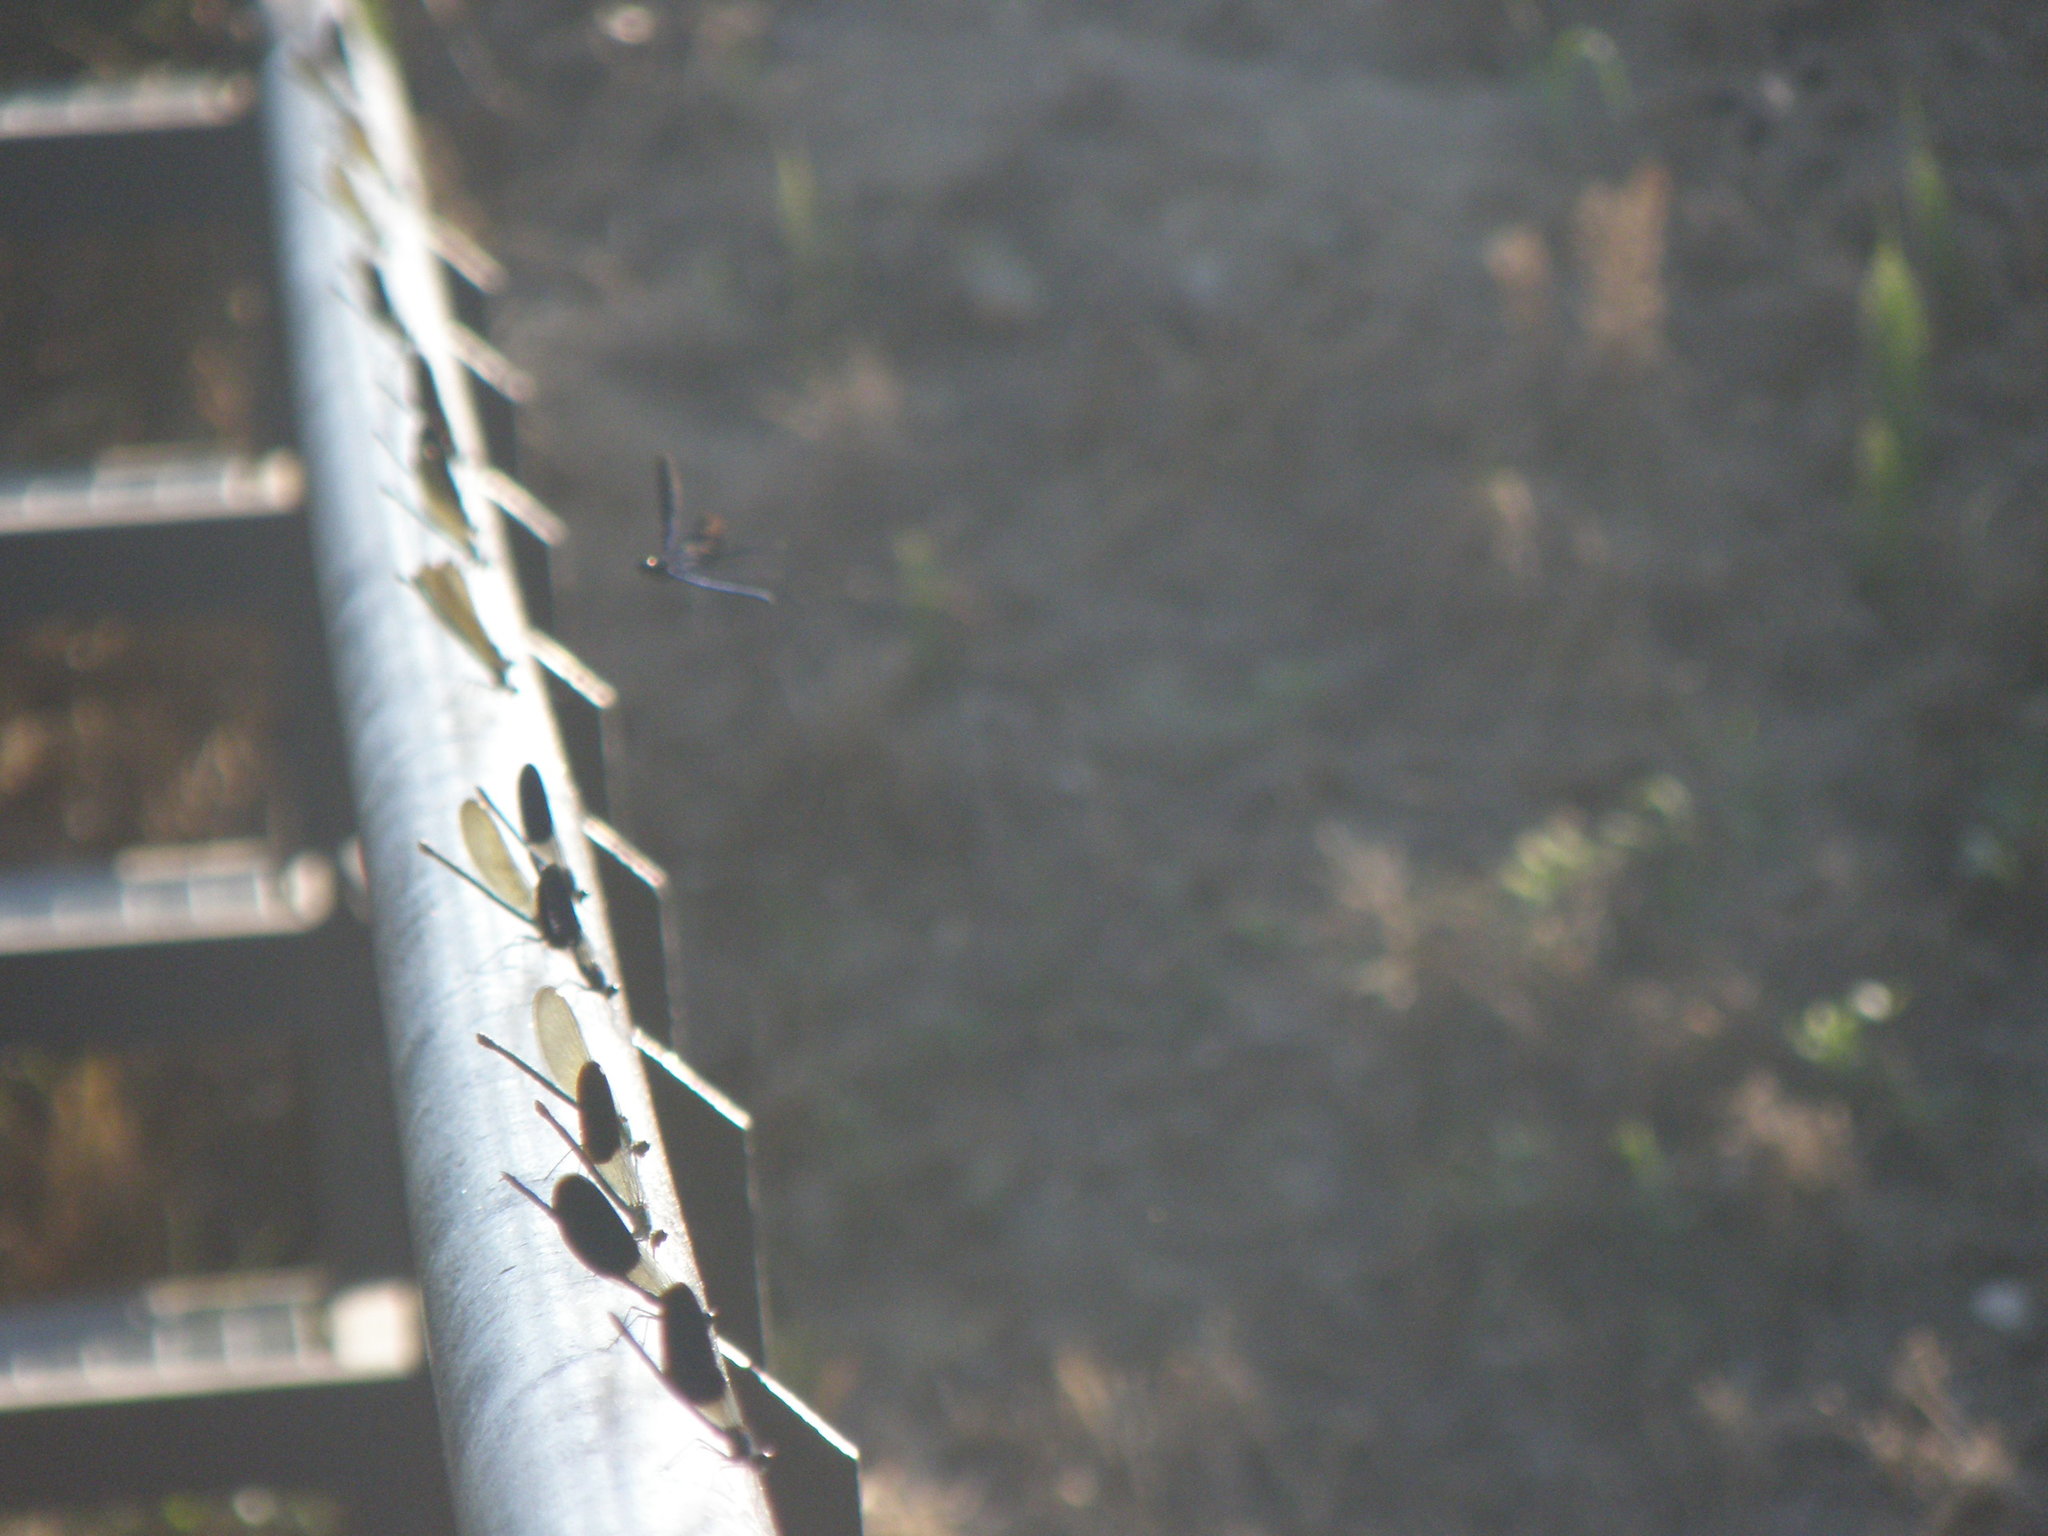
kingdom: Animalia
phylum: Arthropoda
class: Insecta
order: Odonata
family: Calopterygidae
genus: Calopteryx
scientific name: Calopteryx splendens
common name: Banded demoiselle
